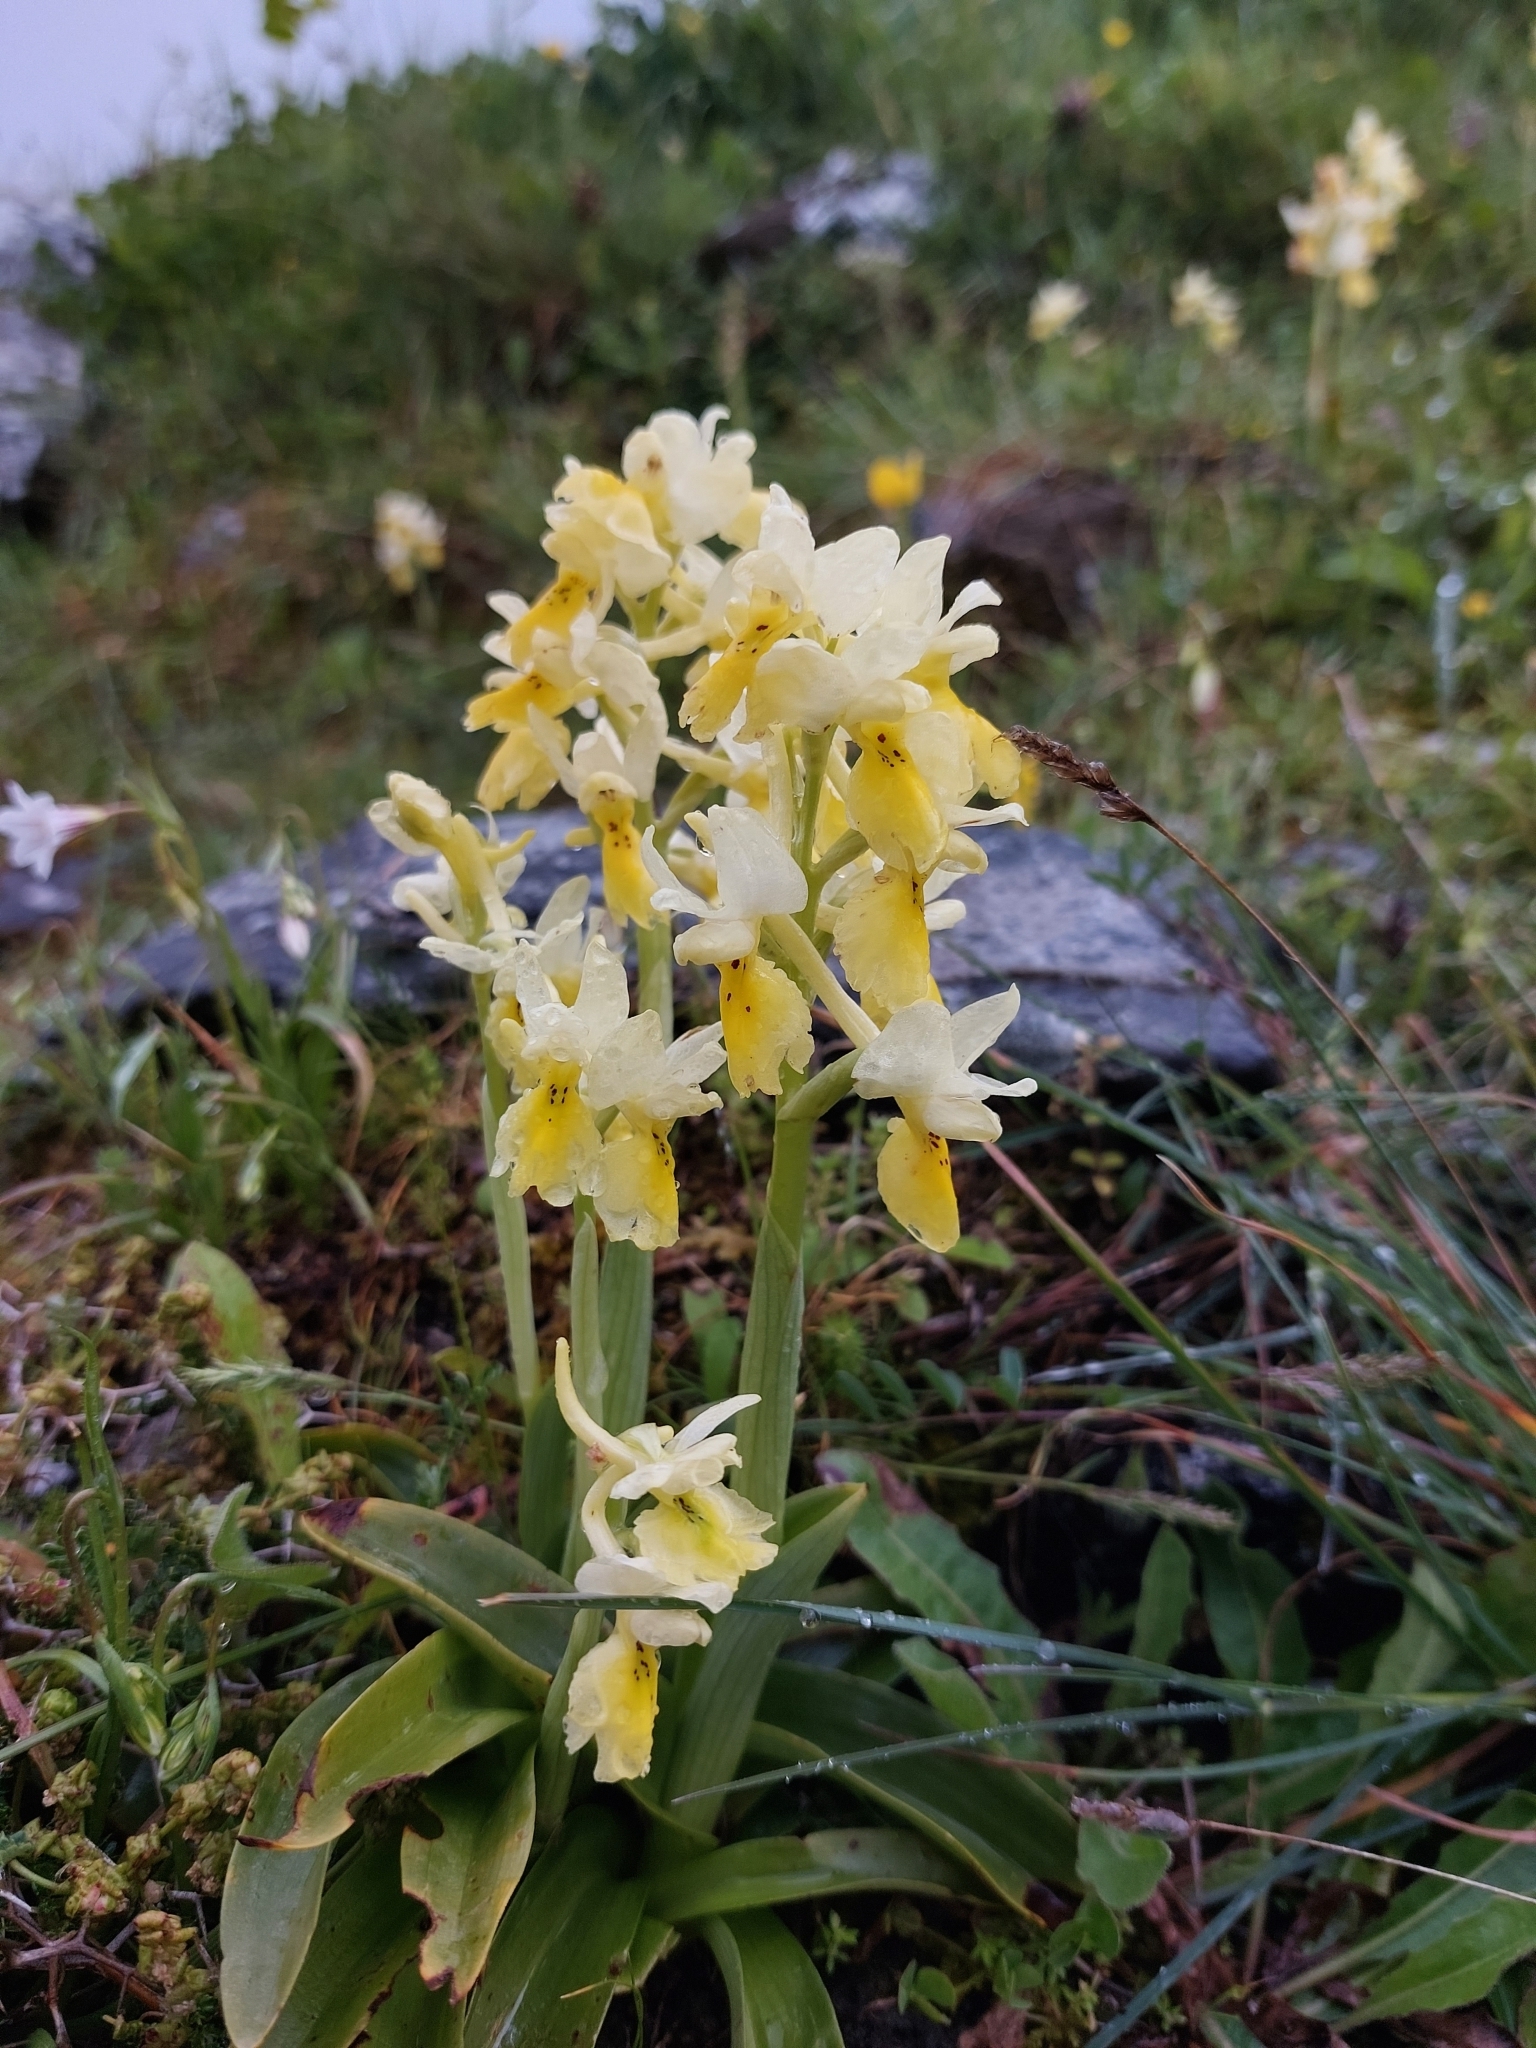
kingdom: Plantae
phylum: Tracheophyta
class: Liliopsida
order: Asparagales
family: Orchidaceae
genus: Orchis
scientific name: Orchis pauciflora
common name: Few-flowered orchid
